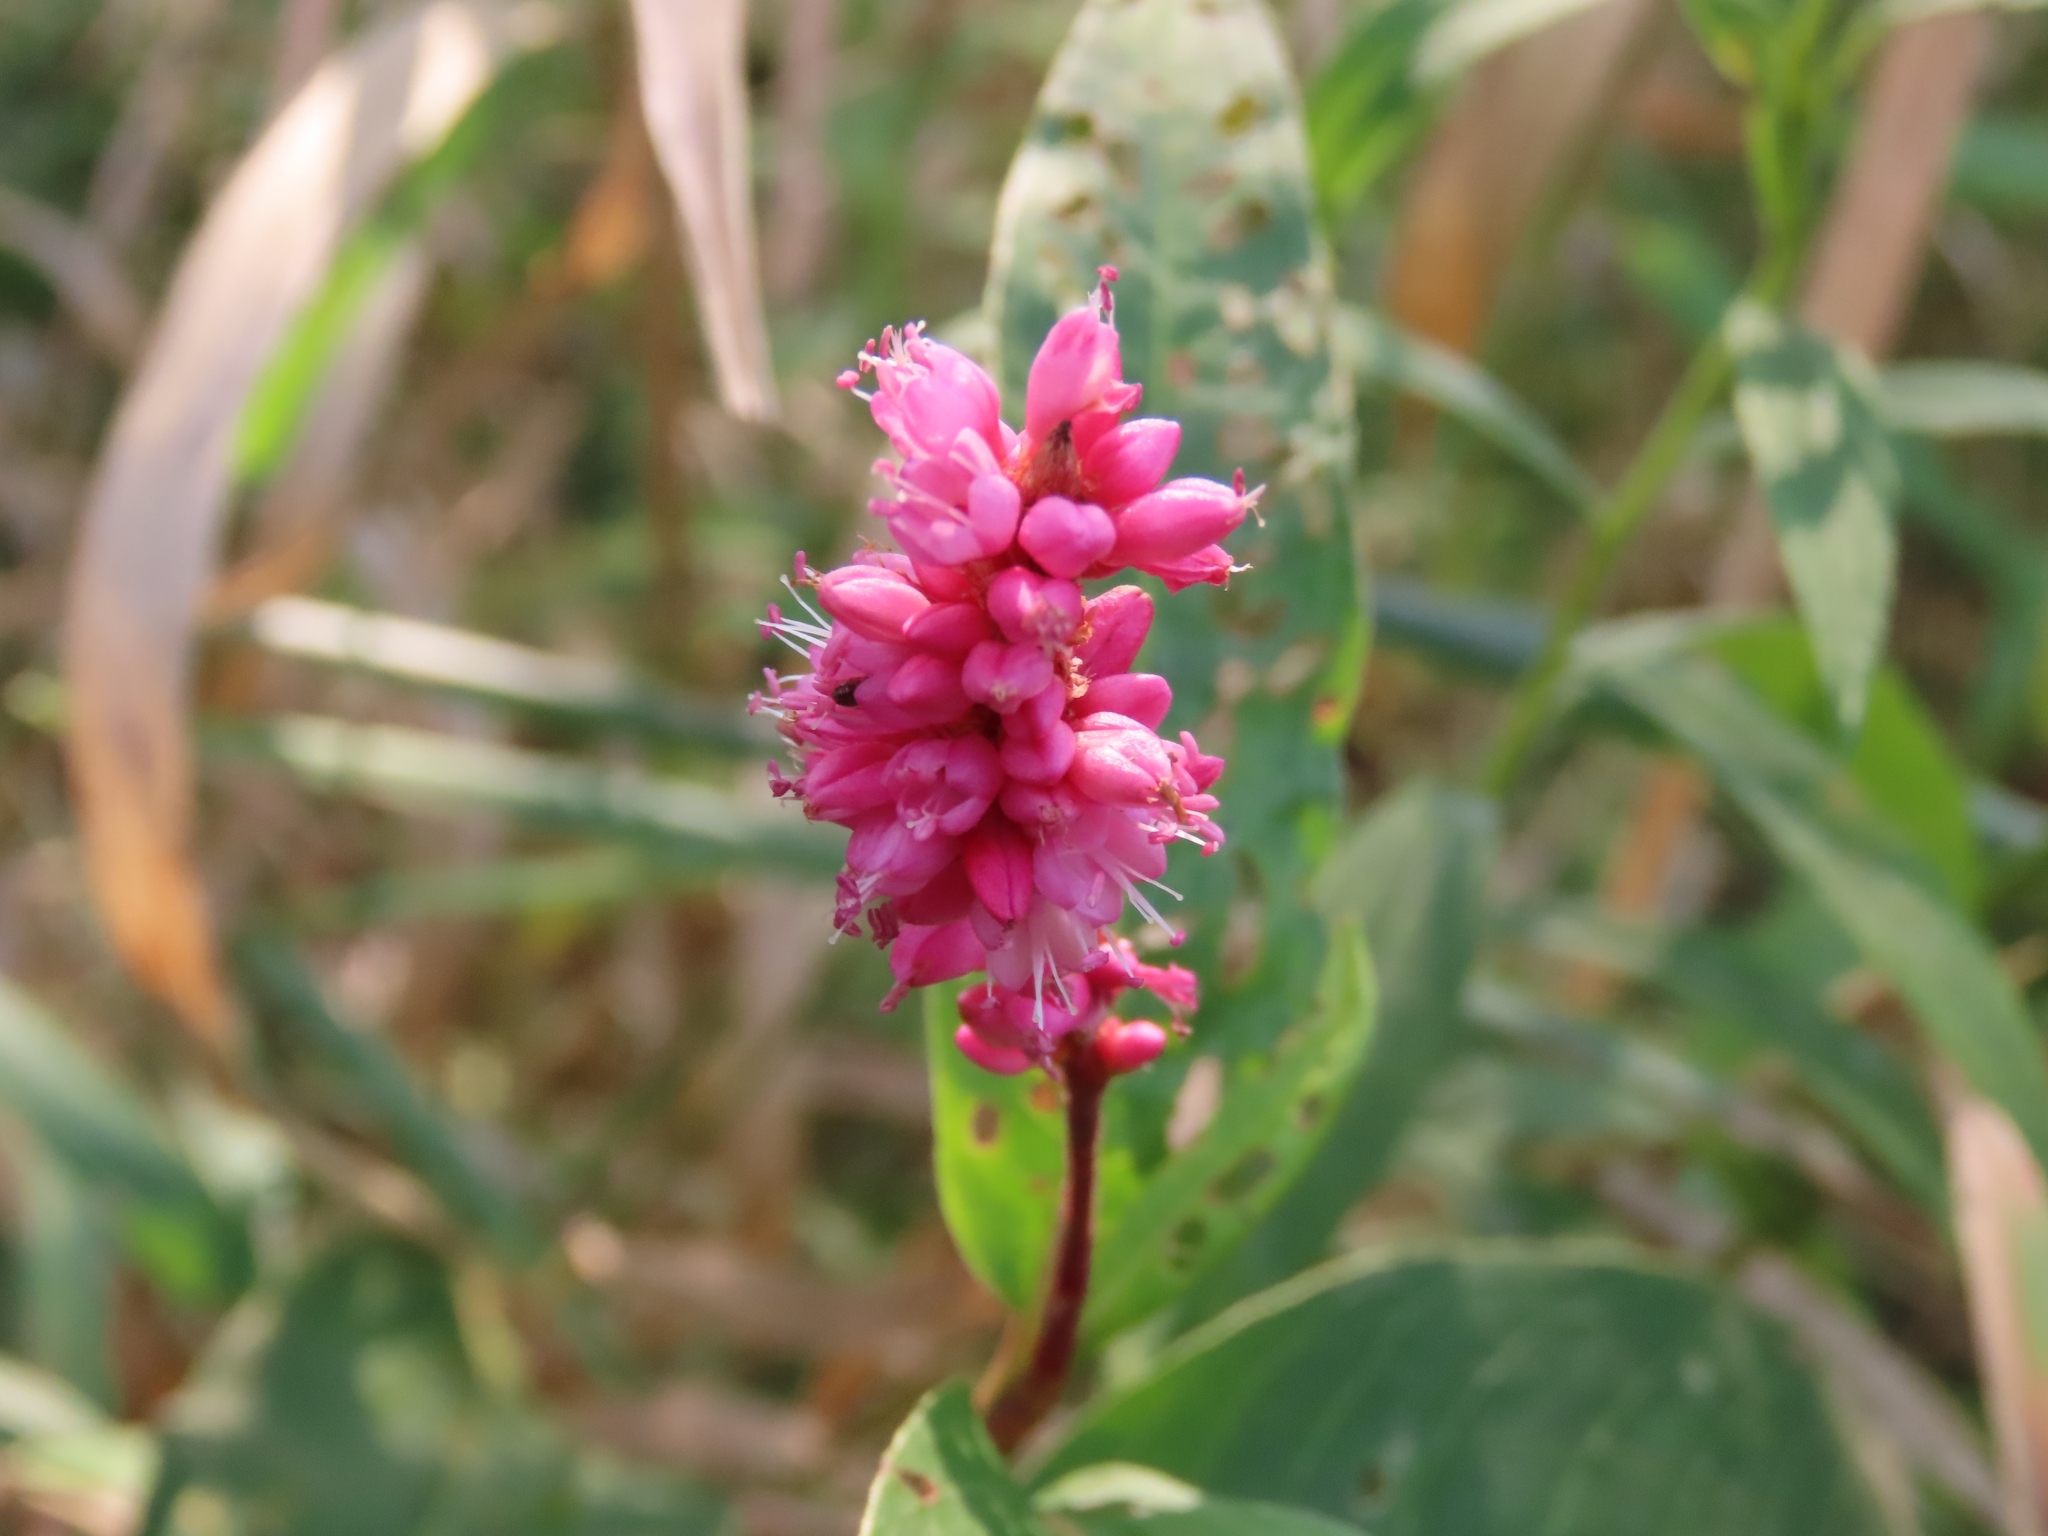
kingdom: Plantae
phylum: Tracheophyta
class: Magnoliopsida
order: Caryophyllales
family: Polygonaceae
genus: Persicaria
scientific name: Persicaria amphibia
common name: Amphibious bistort
